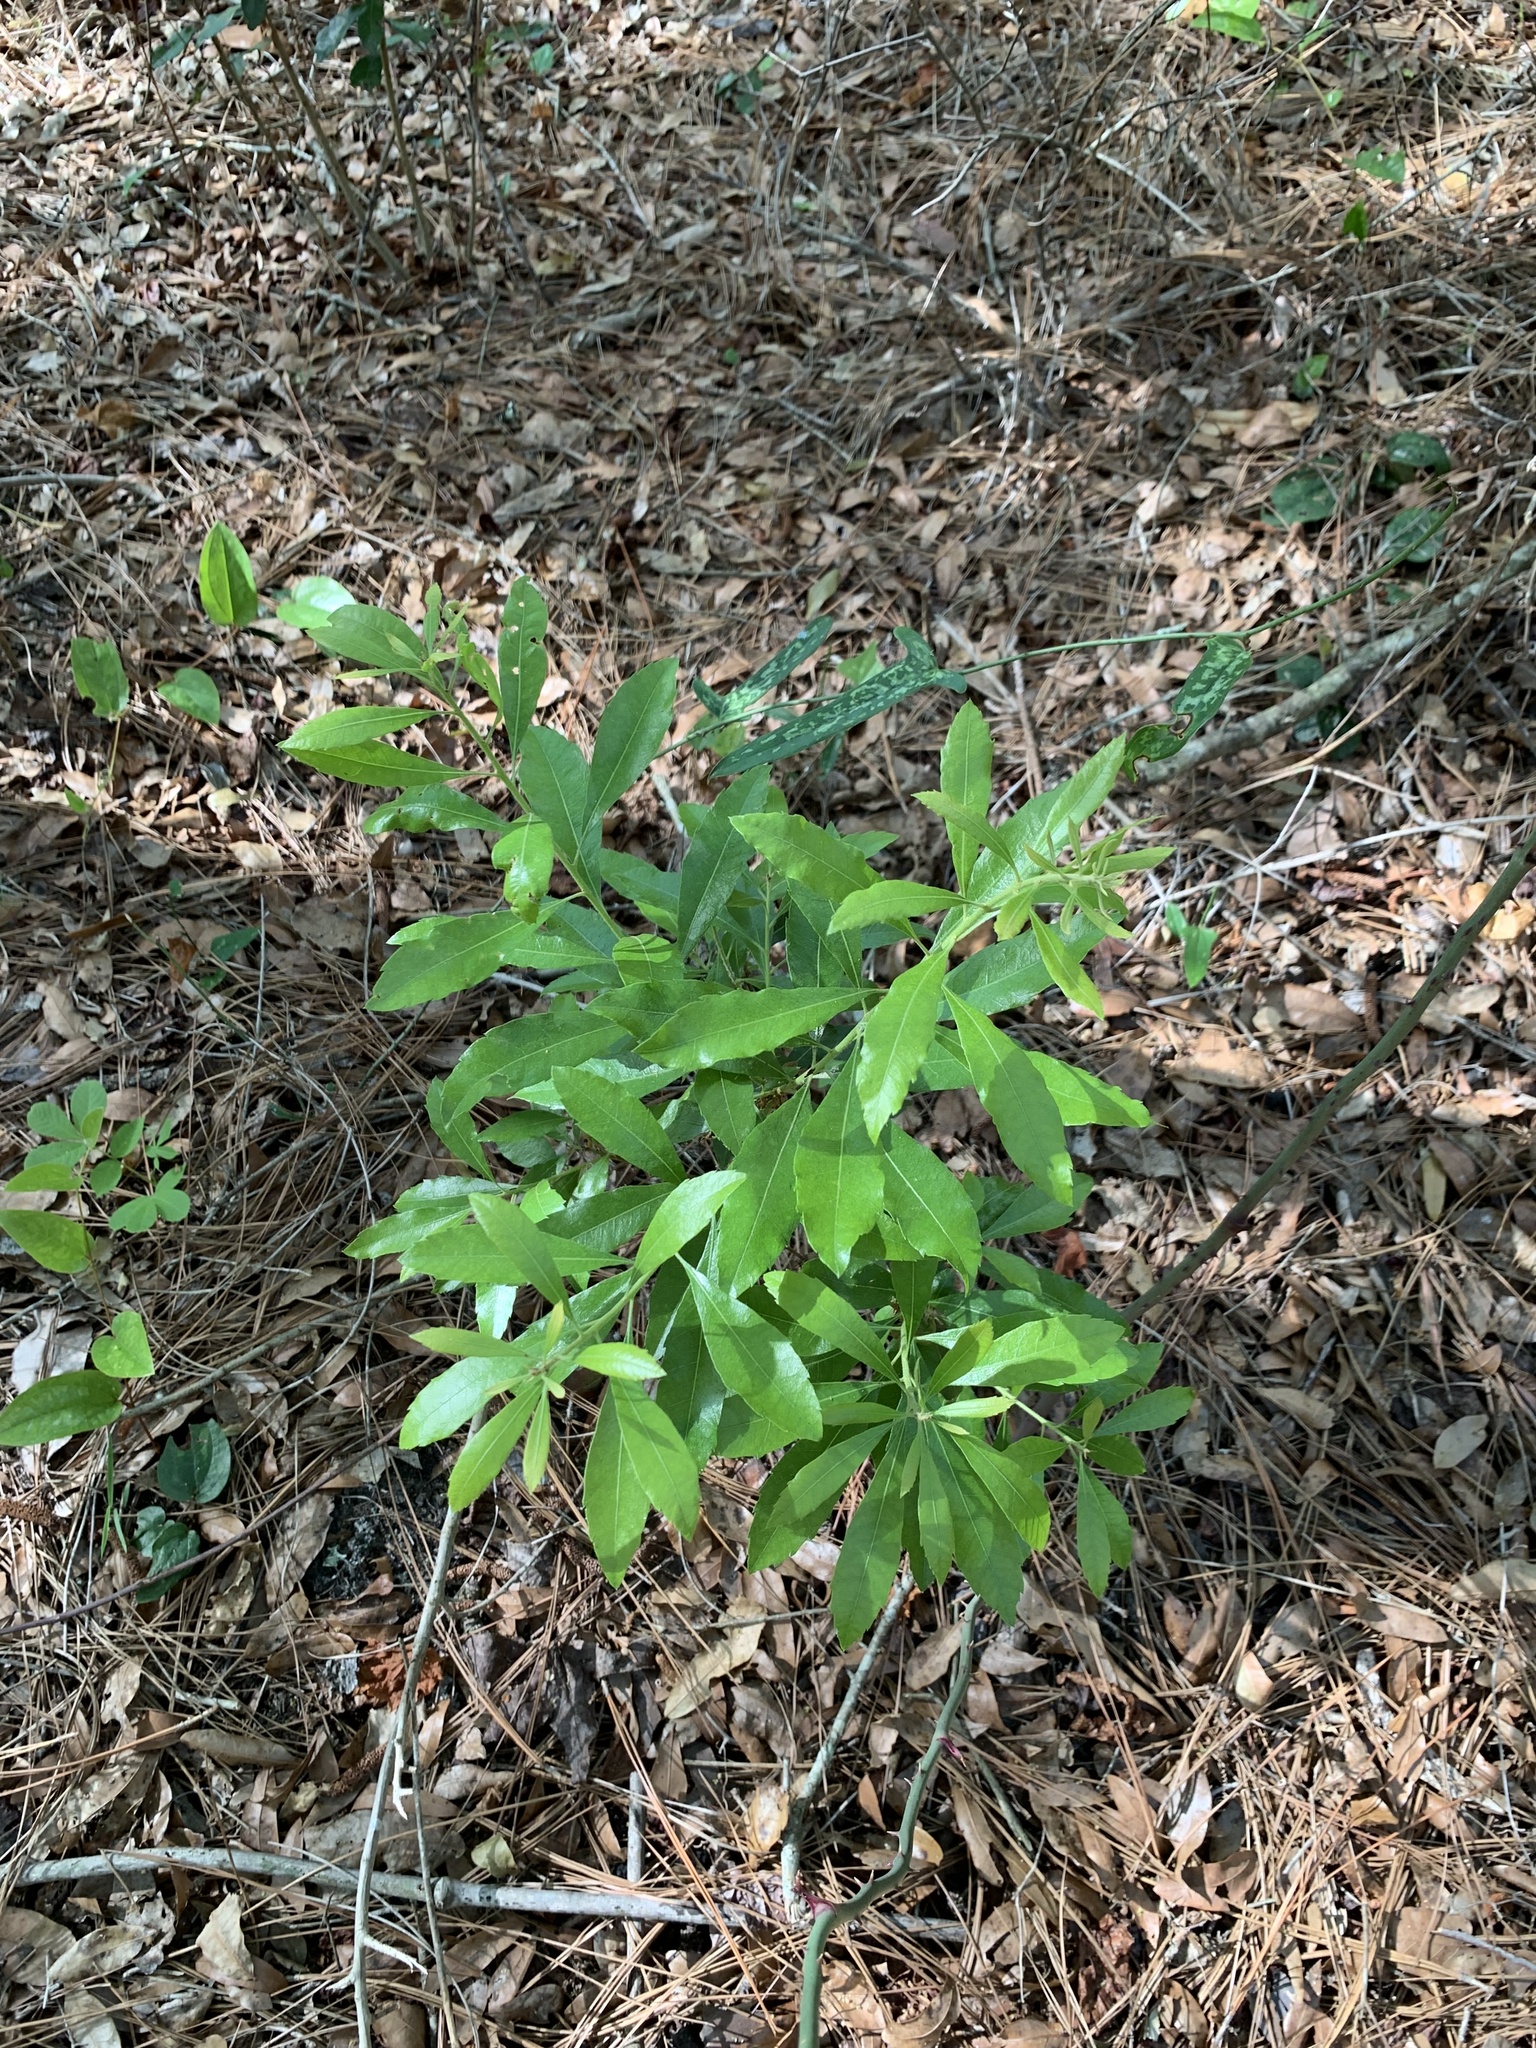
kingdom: Plantae
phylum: Tracheophyta
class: Magnoliopsida
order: Fagales
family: Myricaceae
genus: Morella
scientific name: Morella cerifera
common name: Wax myrtle
